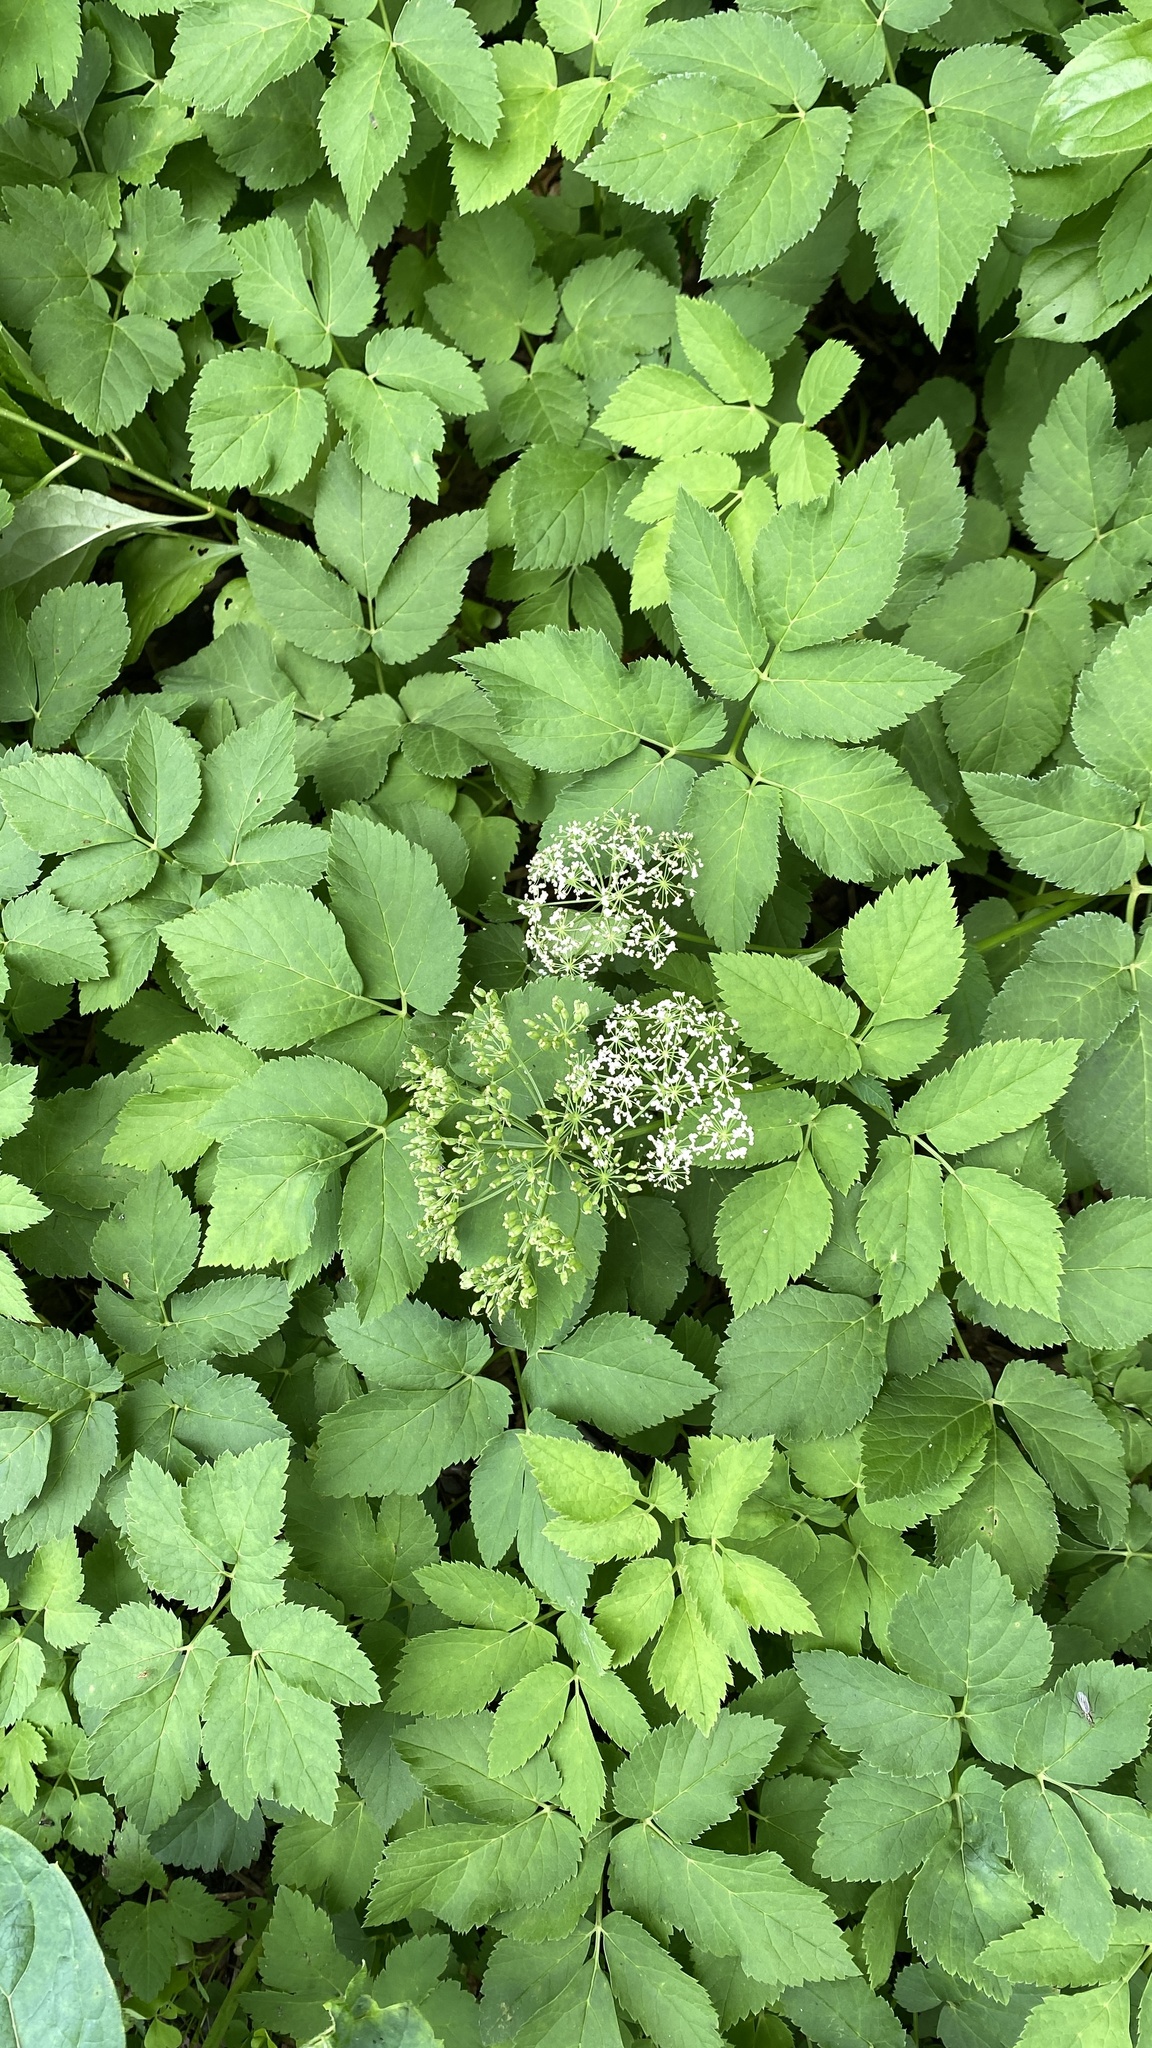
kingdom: Plantae
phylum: Tracheophyta
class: Magnoliopsida
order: Apiales
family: Apiaceae
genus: Aegopodium
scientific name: Aegopodium podagraria
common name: Ground-elder
